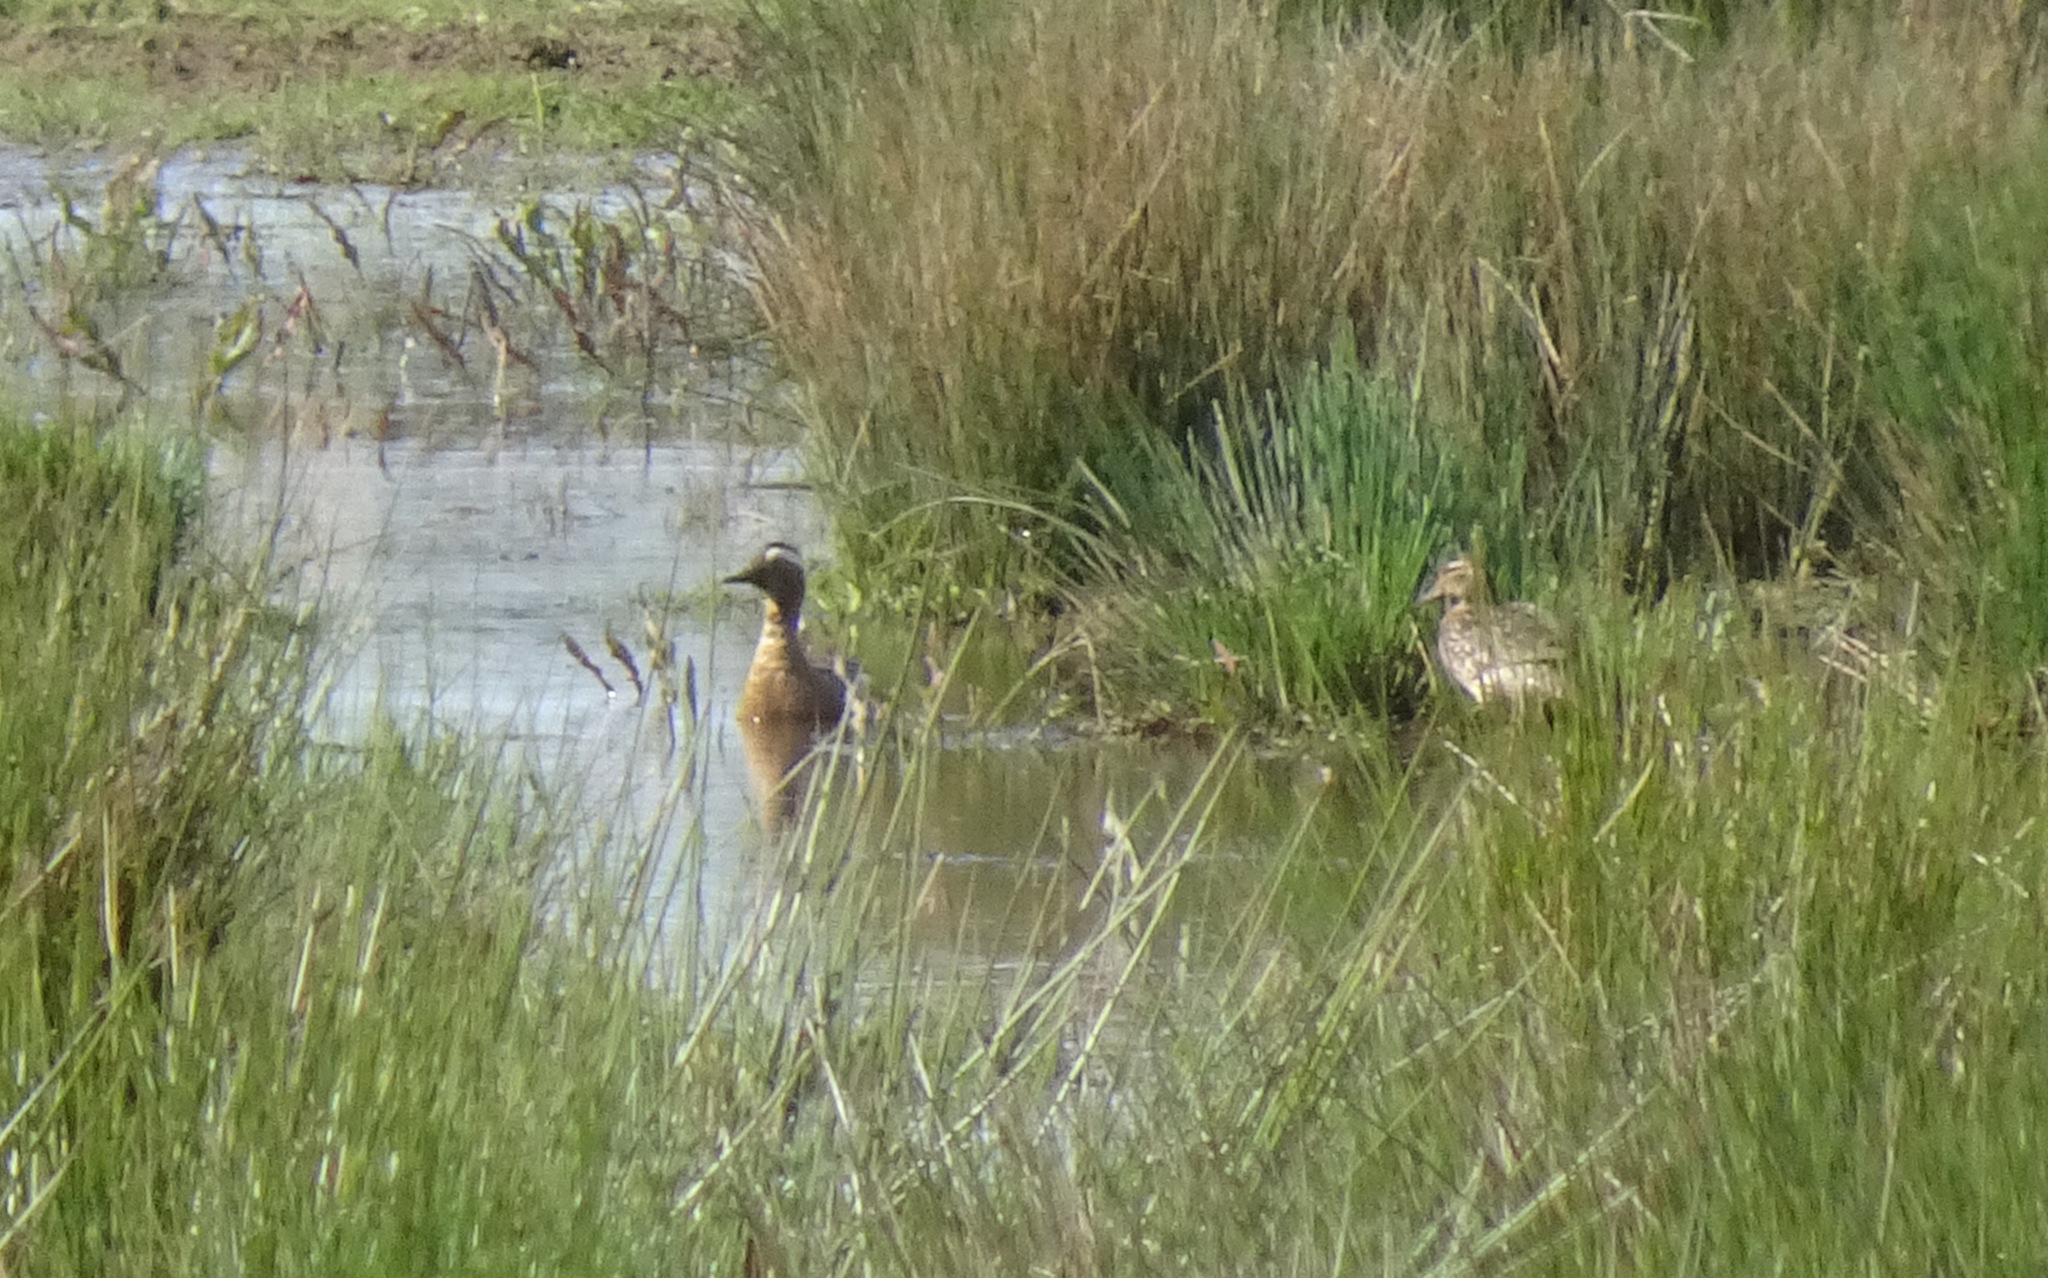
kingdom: Animalia
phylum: Chordata
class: Aves
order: Anseriformes
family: Anatidae
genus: Spatula
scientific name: Spatula querquedula
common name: Garganey
